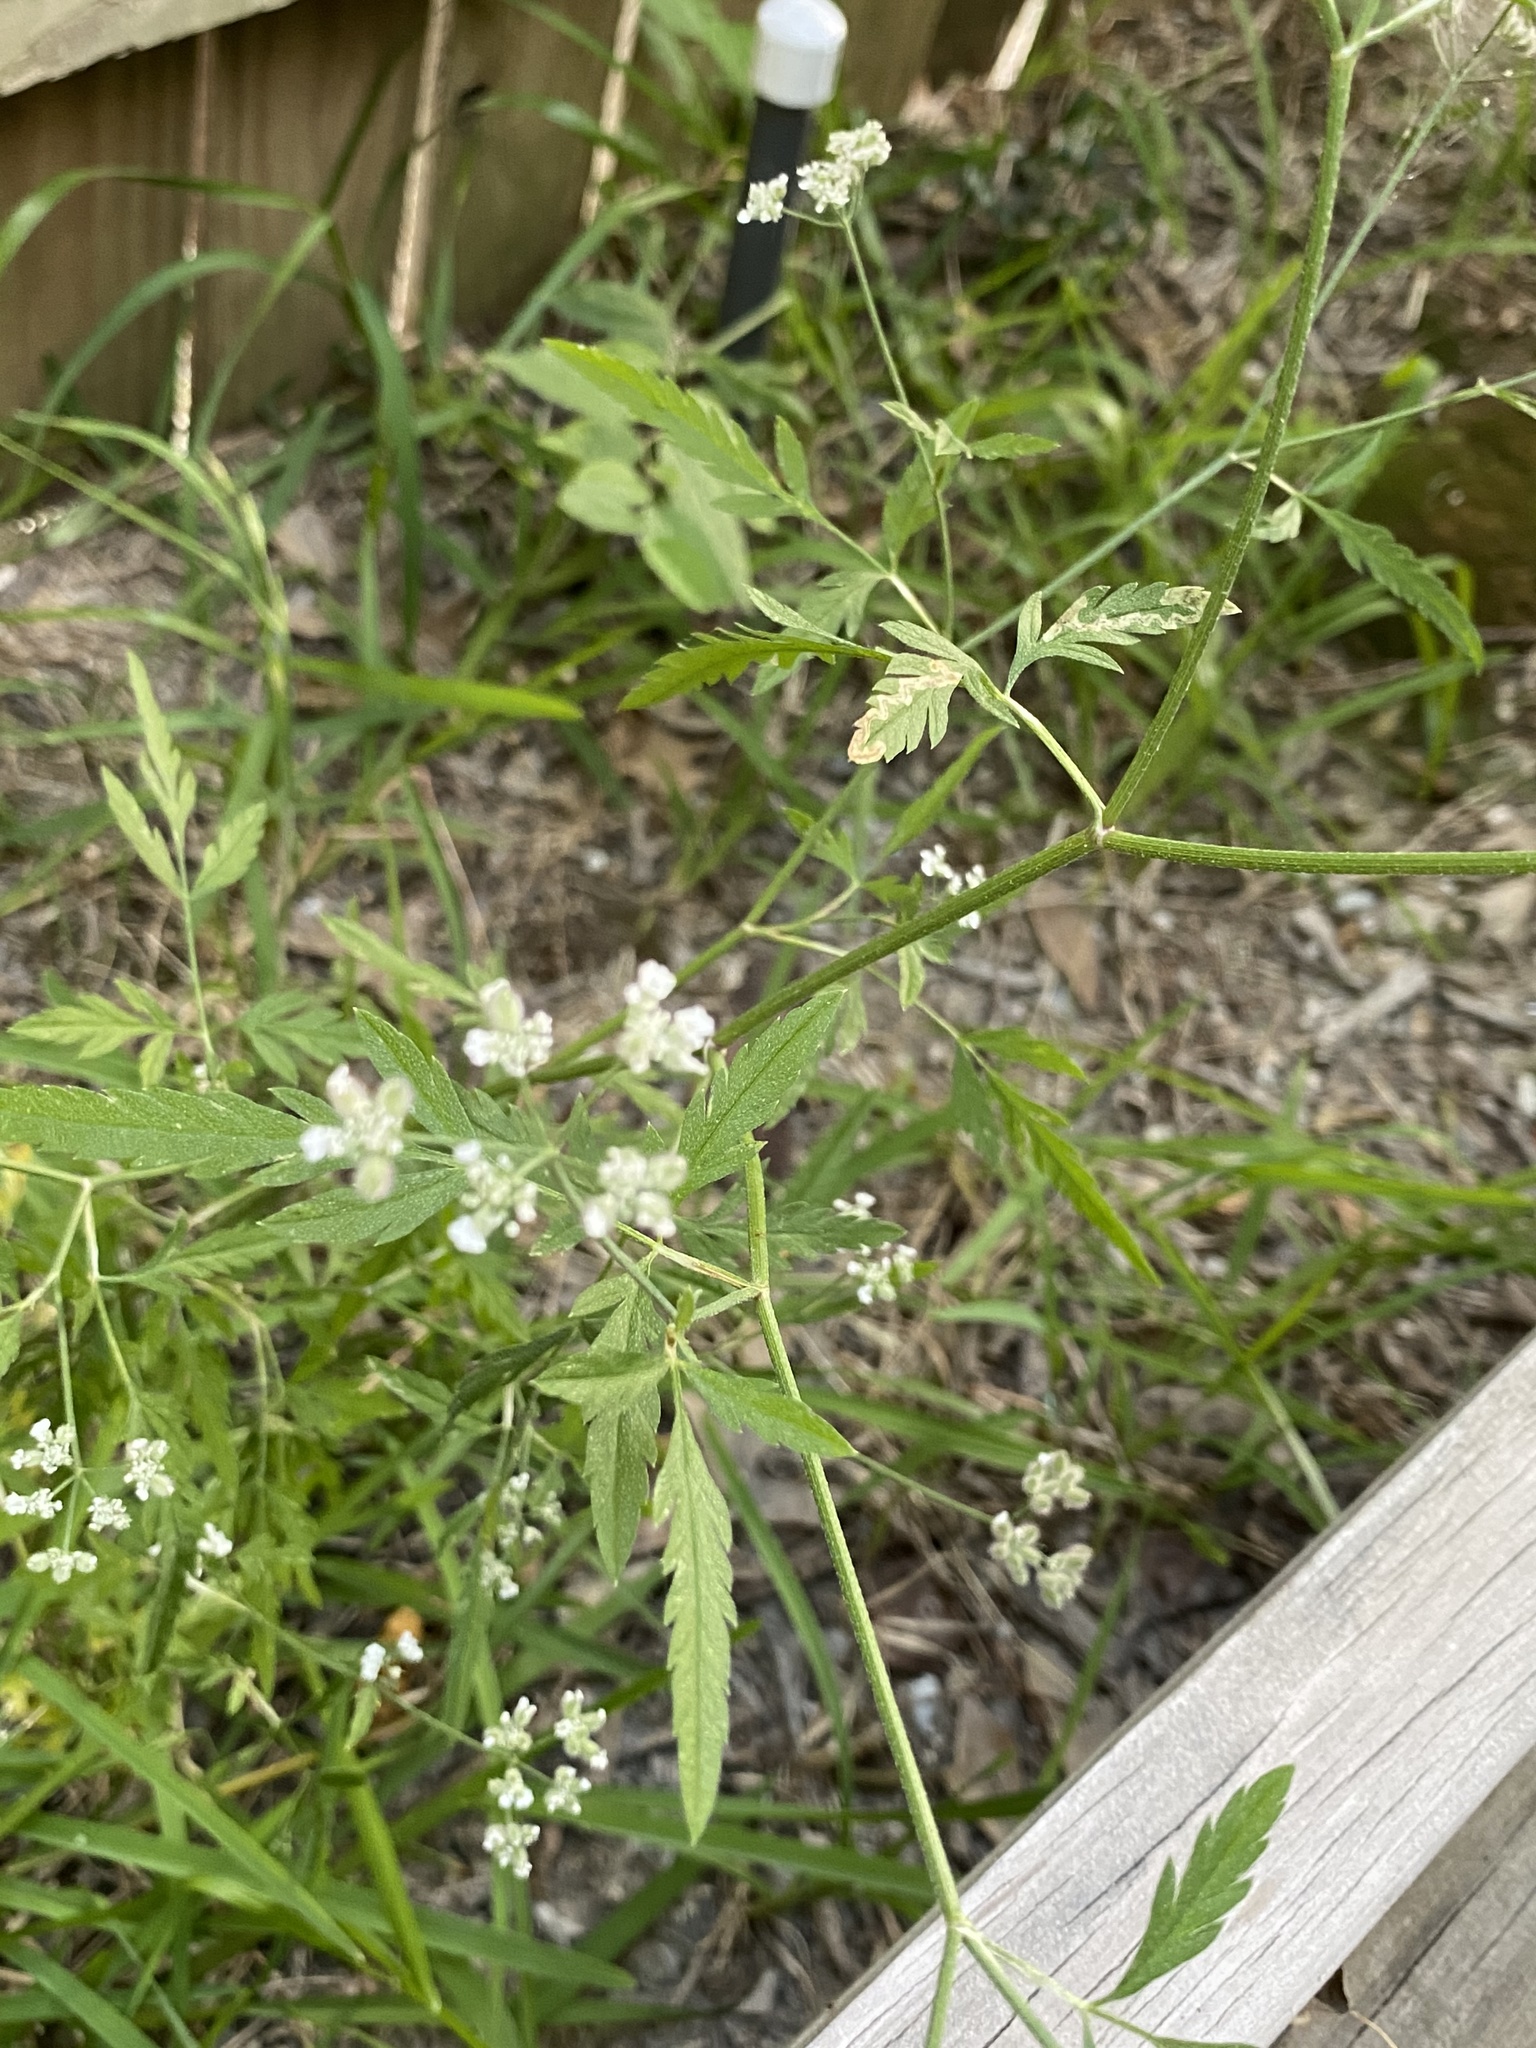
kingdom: Plantae
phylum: Tracheophyta
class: Magnoliopsida
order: Apiales
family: Apiaceae
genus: Torilis
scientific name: Torilis arvensis
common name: Spreading hedge-parsley
